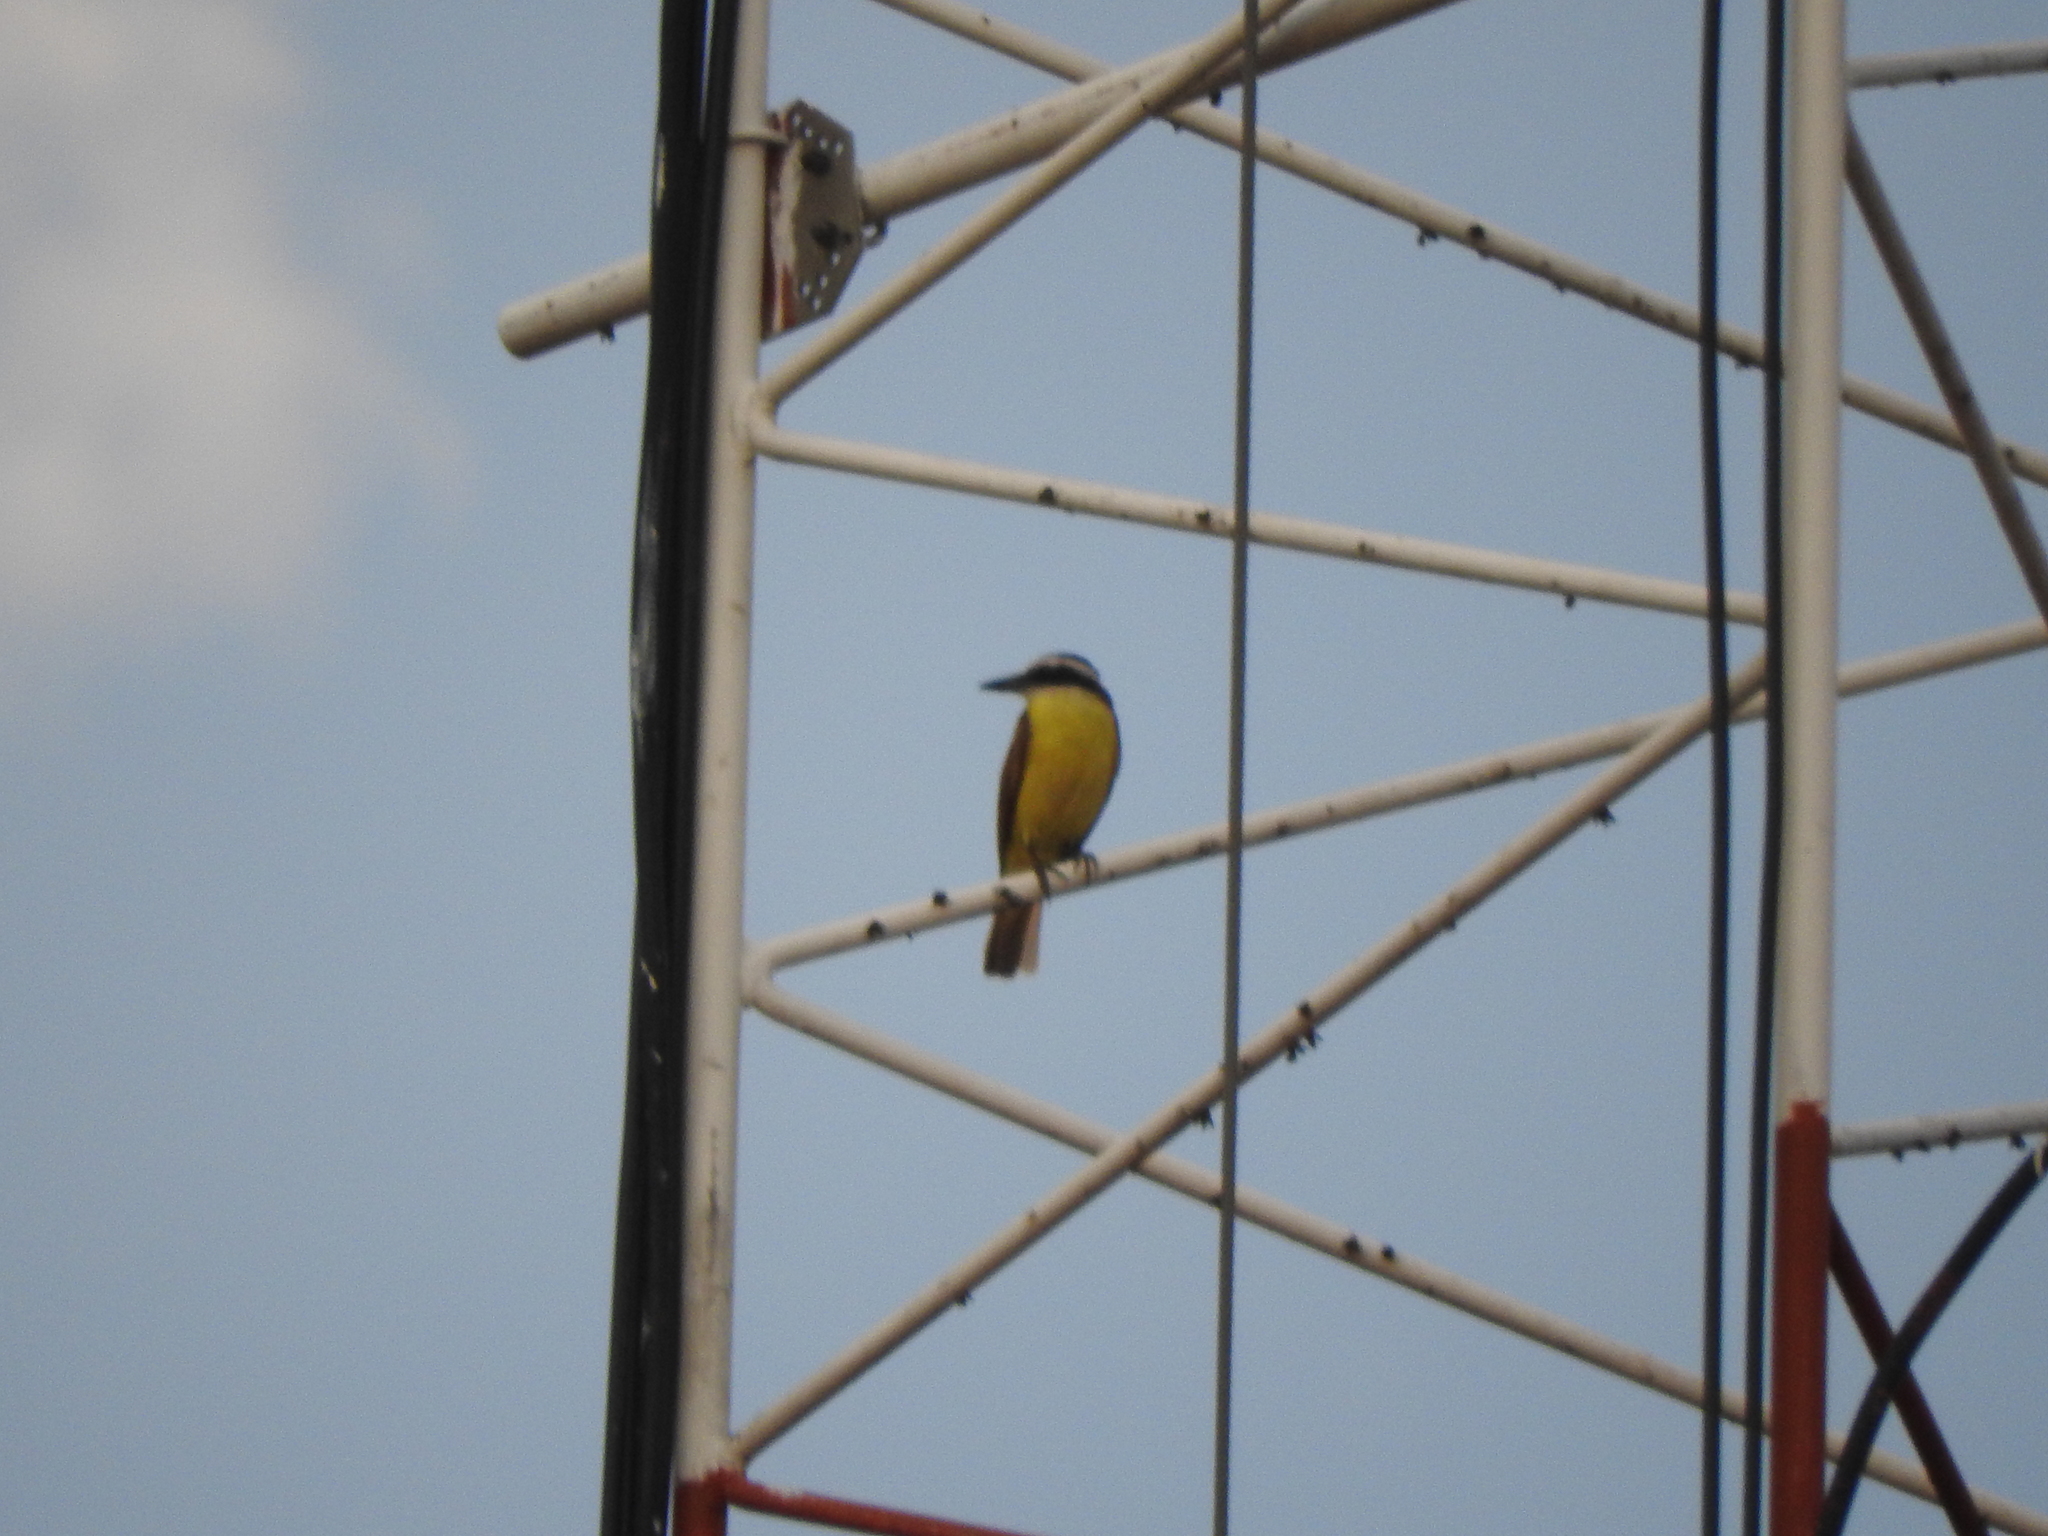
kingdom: Animalia
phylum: Chordata
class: Aves
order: Passeriformes
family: Tyrannidae
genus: Pitangus
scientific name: Pitangus sulphuratus
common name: Great kiskadee
